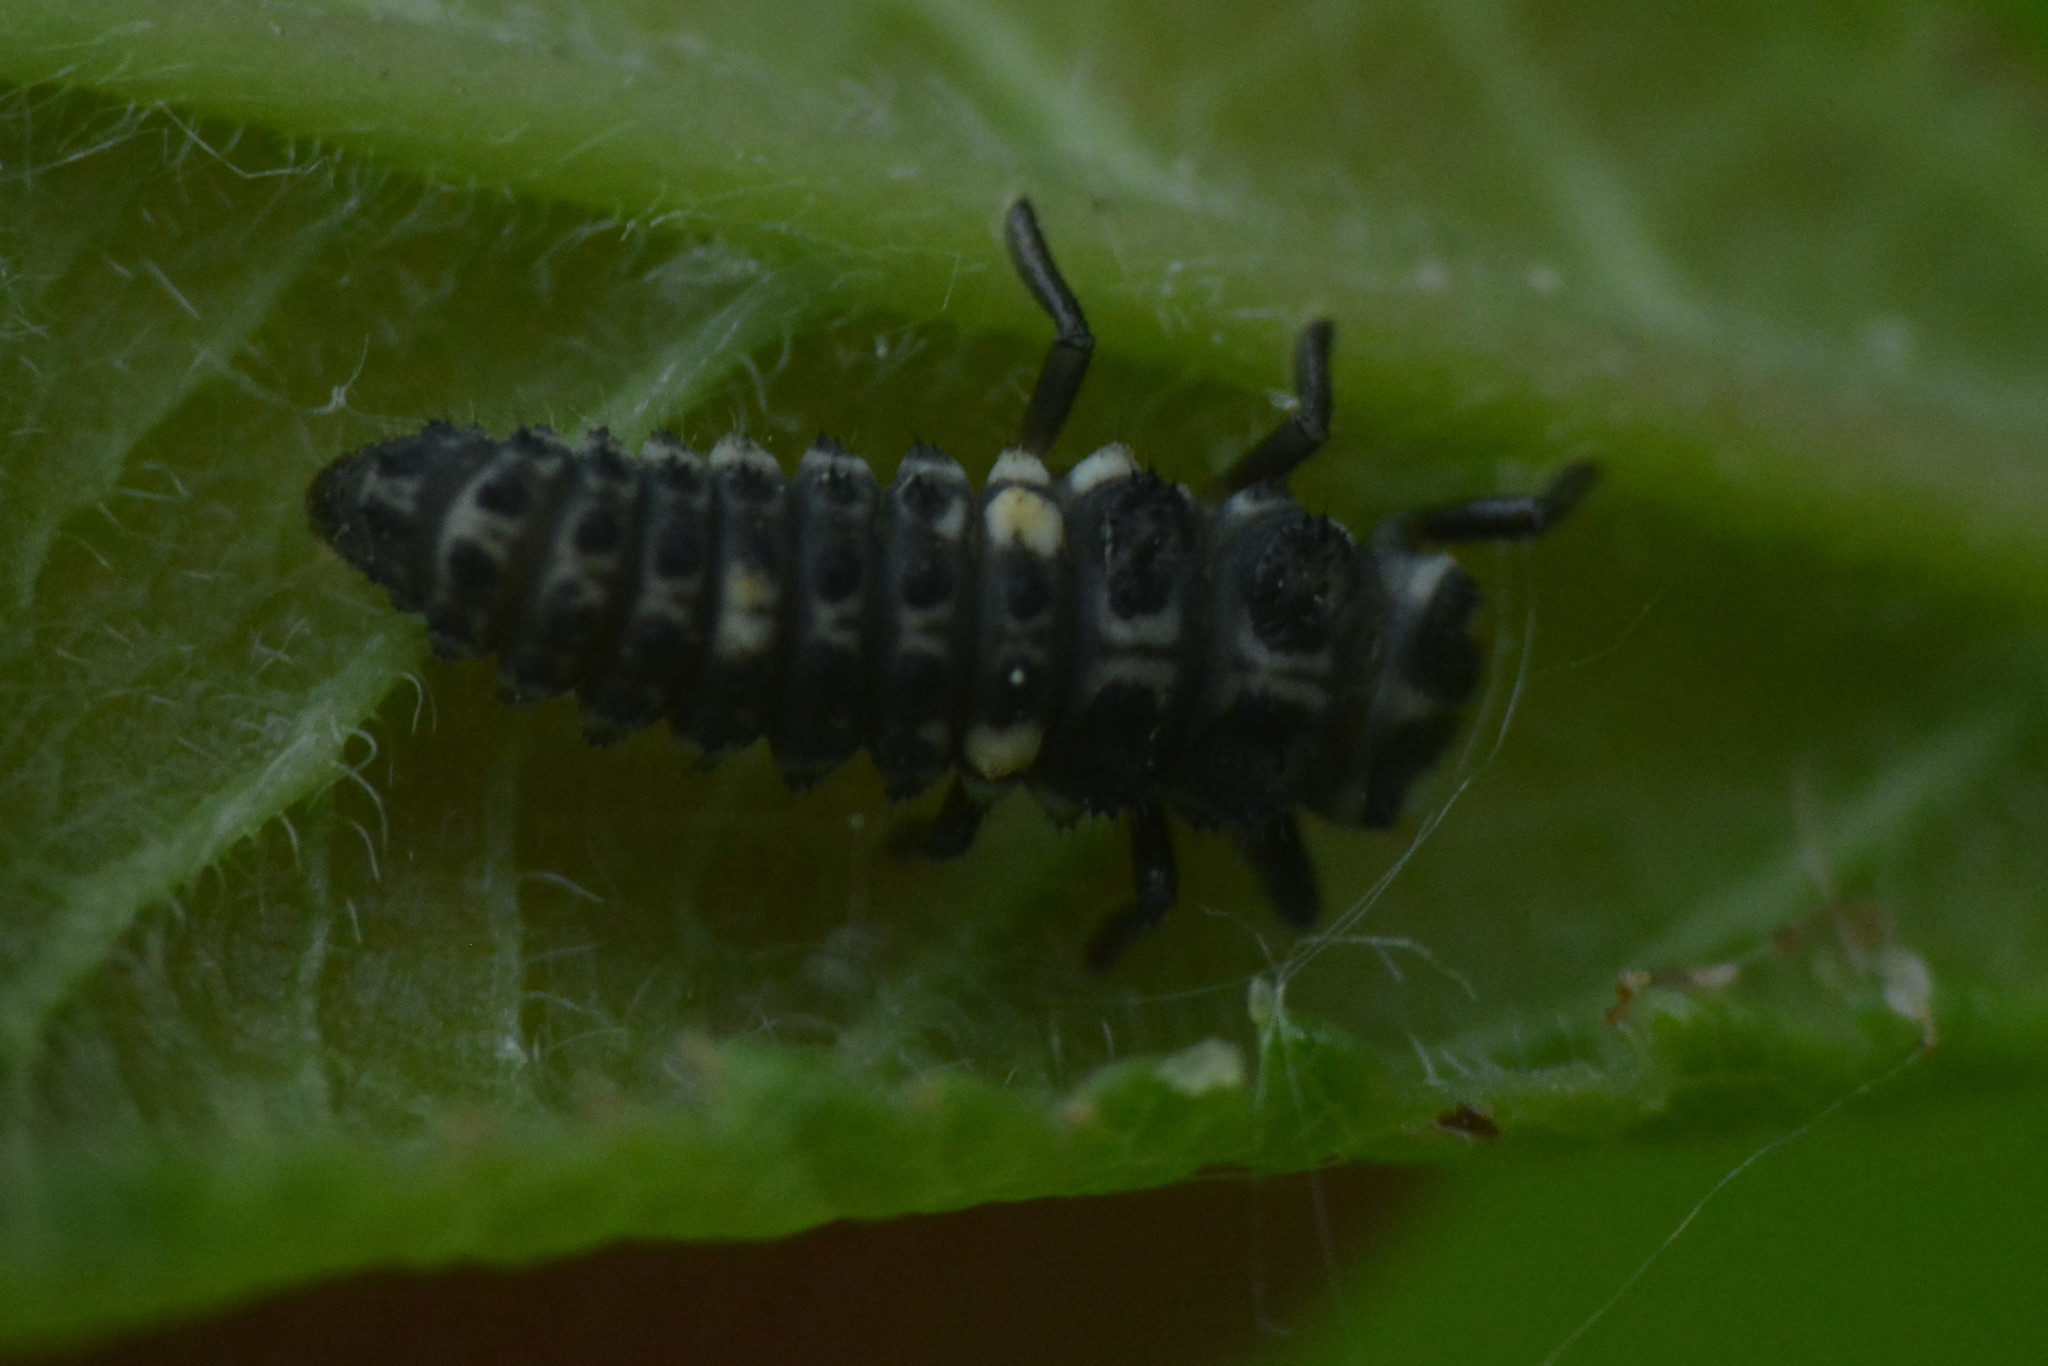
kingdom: Animalia
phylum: Arthropoda
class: Insecta
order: Coleoptera
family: Coccinellidae
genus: Adalia
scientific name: Adalia bipunctata
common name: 2-spot ladybird
